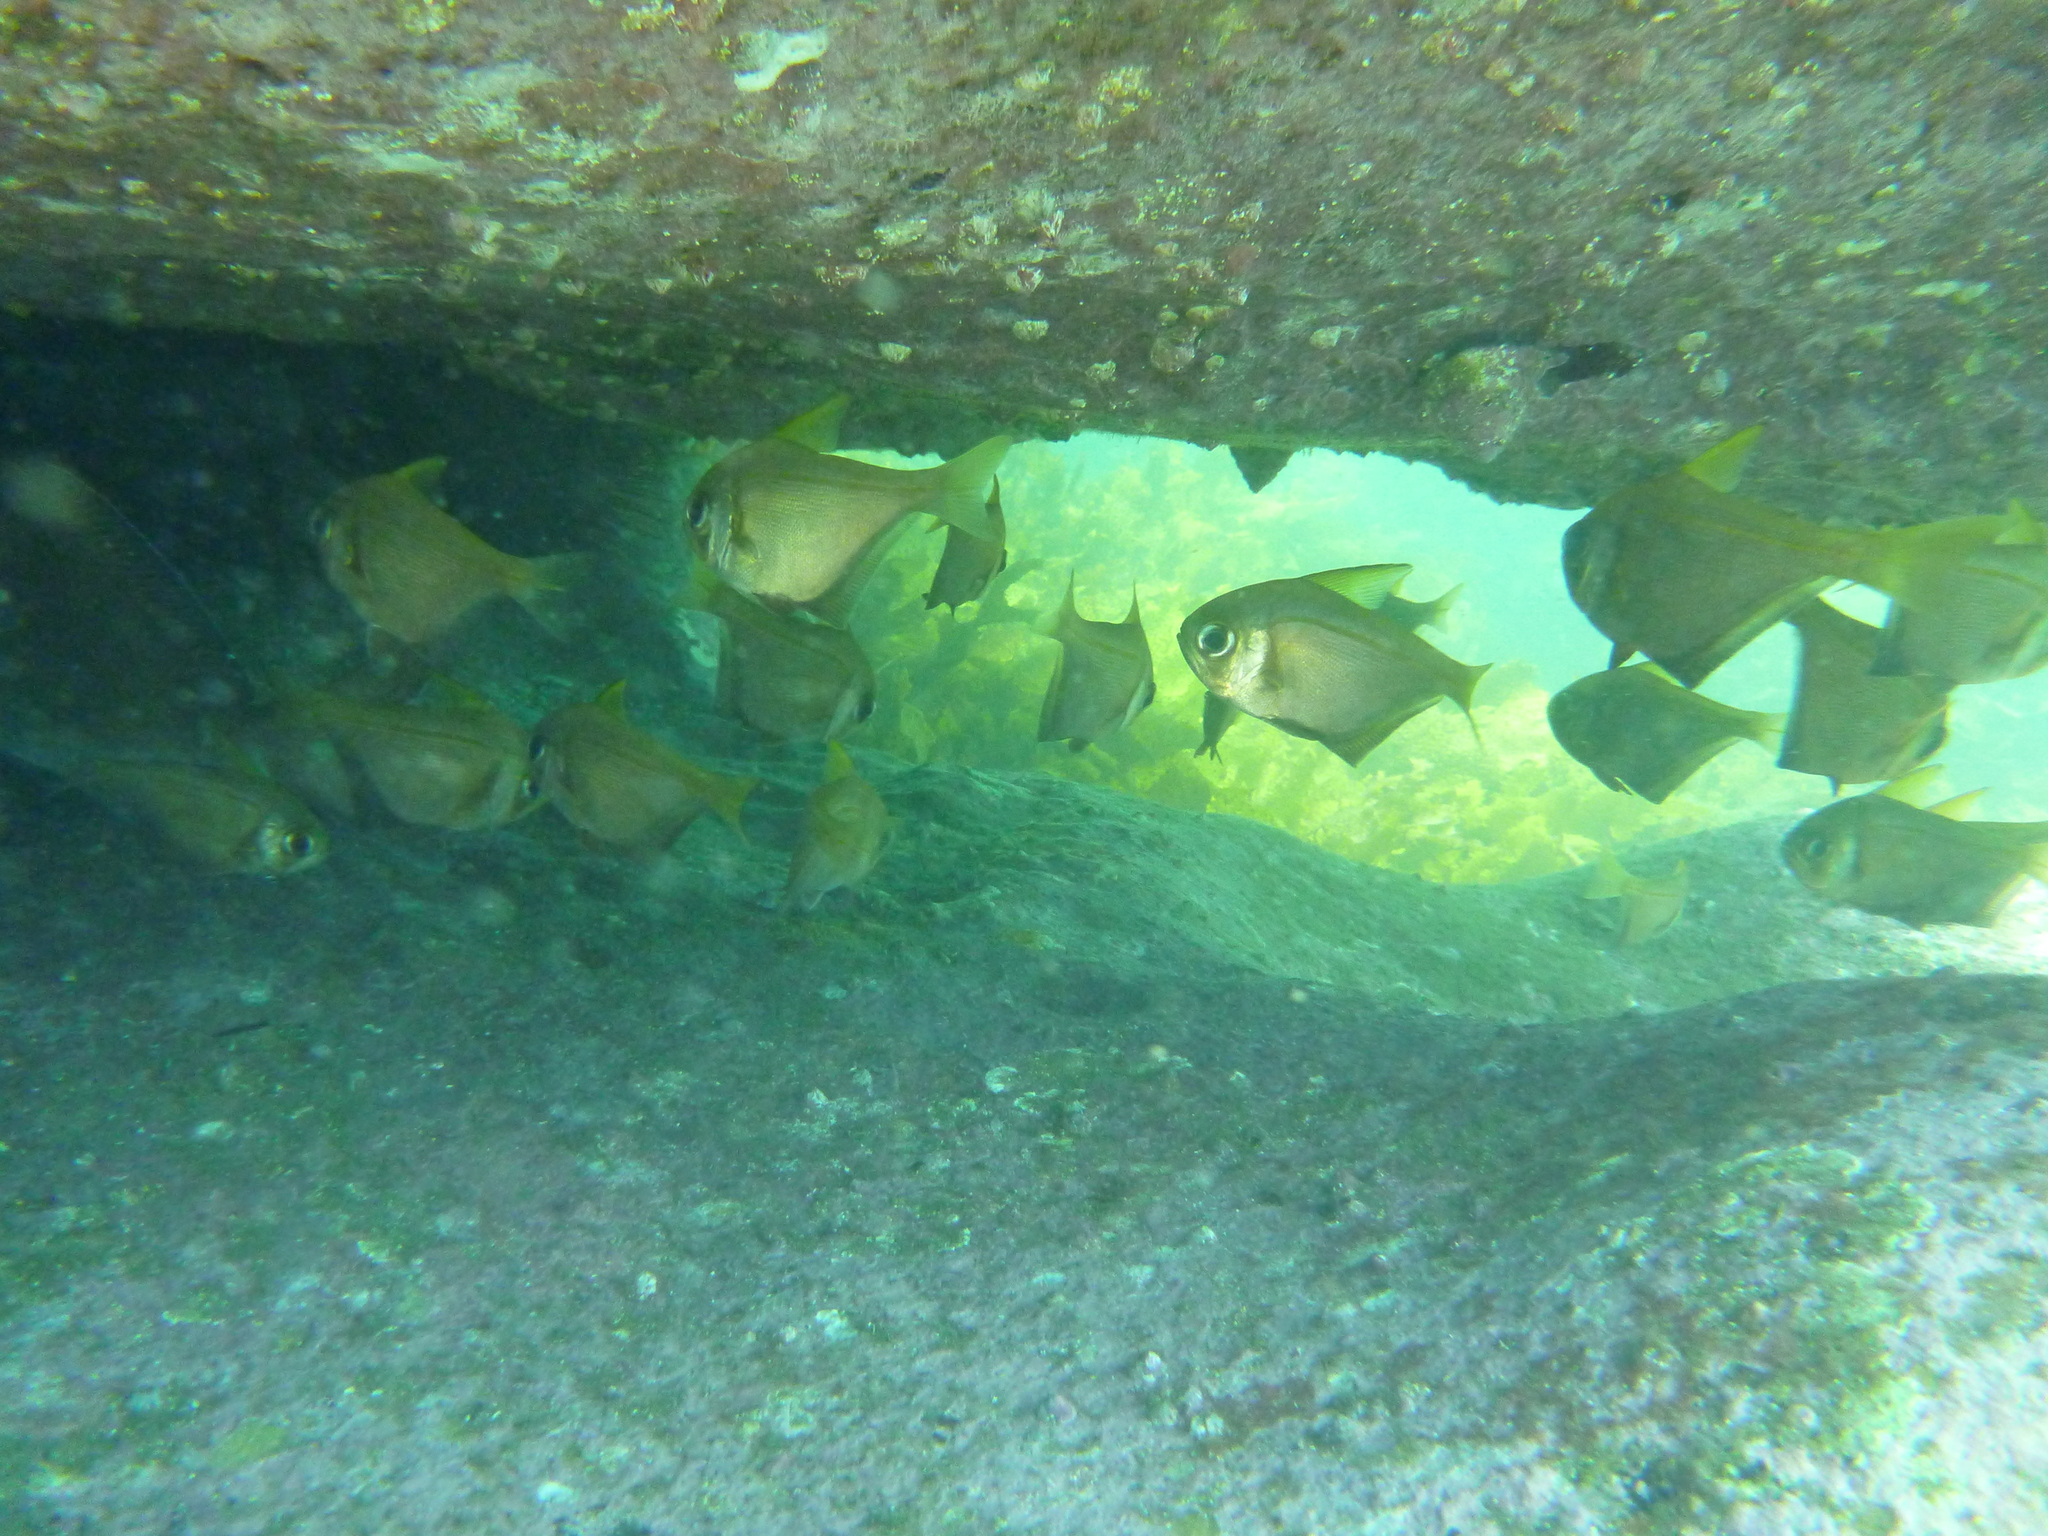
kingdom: Animalia
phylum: Chordata
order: Perciformes
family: Pempheridae
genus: Pempheris
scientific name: Pempheris compressa
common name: Bulleye
